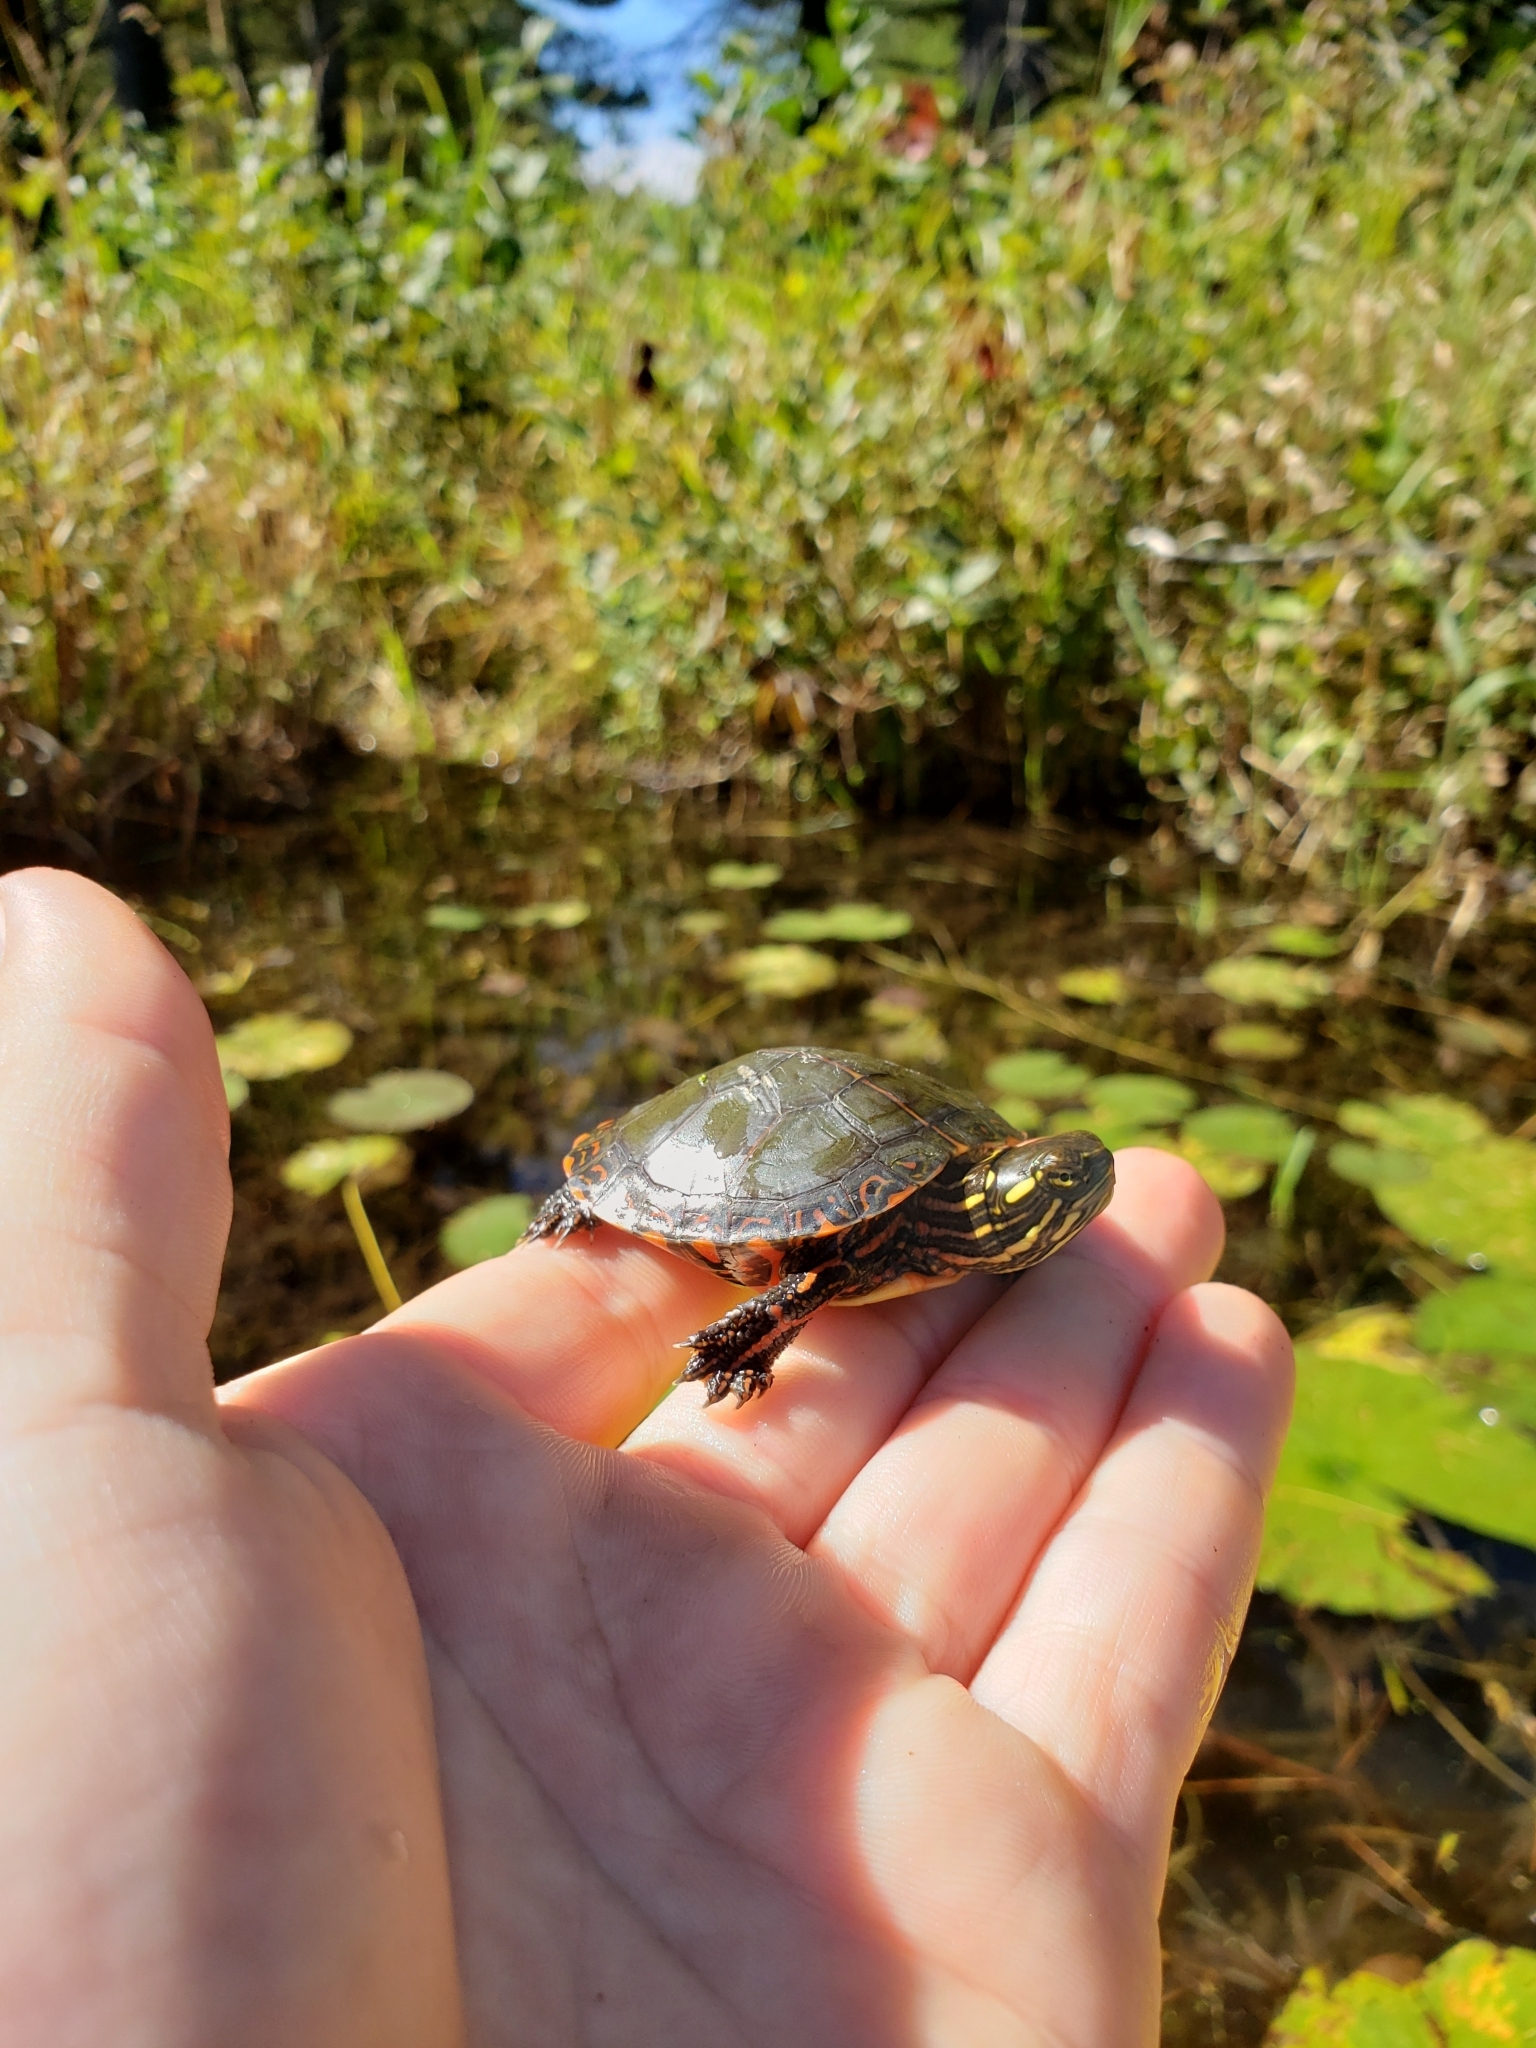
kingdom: Animalia
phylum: Chordata
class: Testudines
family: Emydidae
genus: Chrysemys
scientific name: Chrysemys picta
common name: Painted turtle
